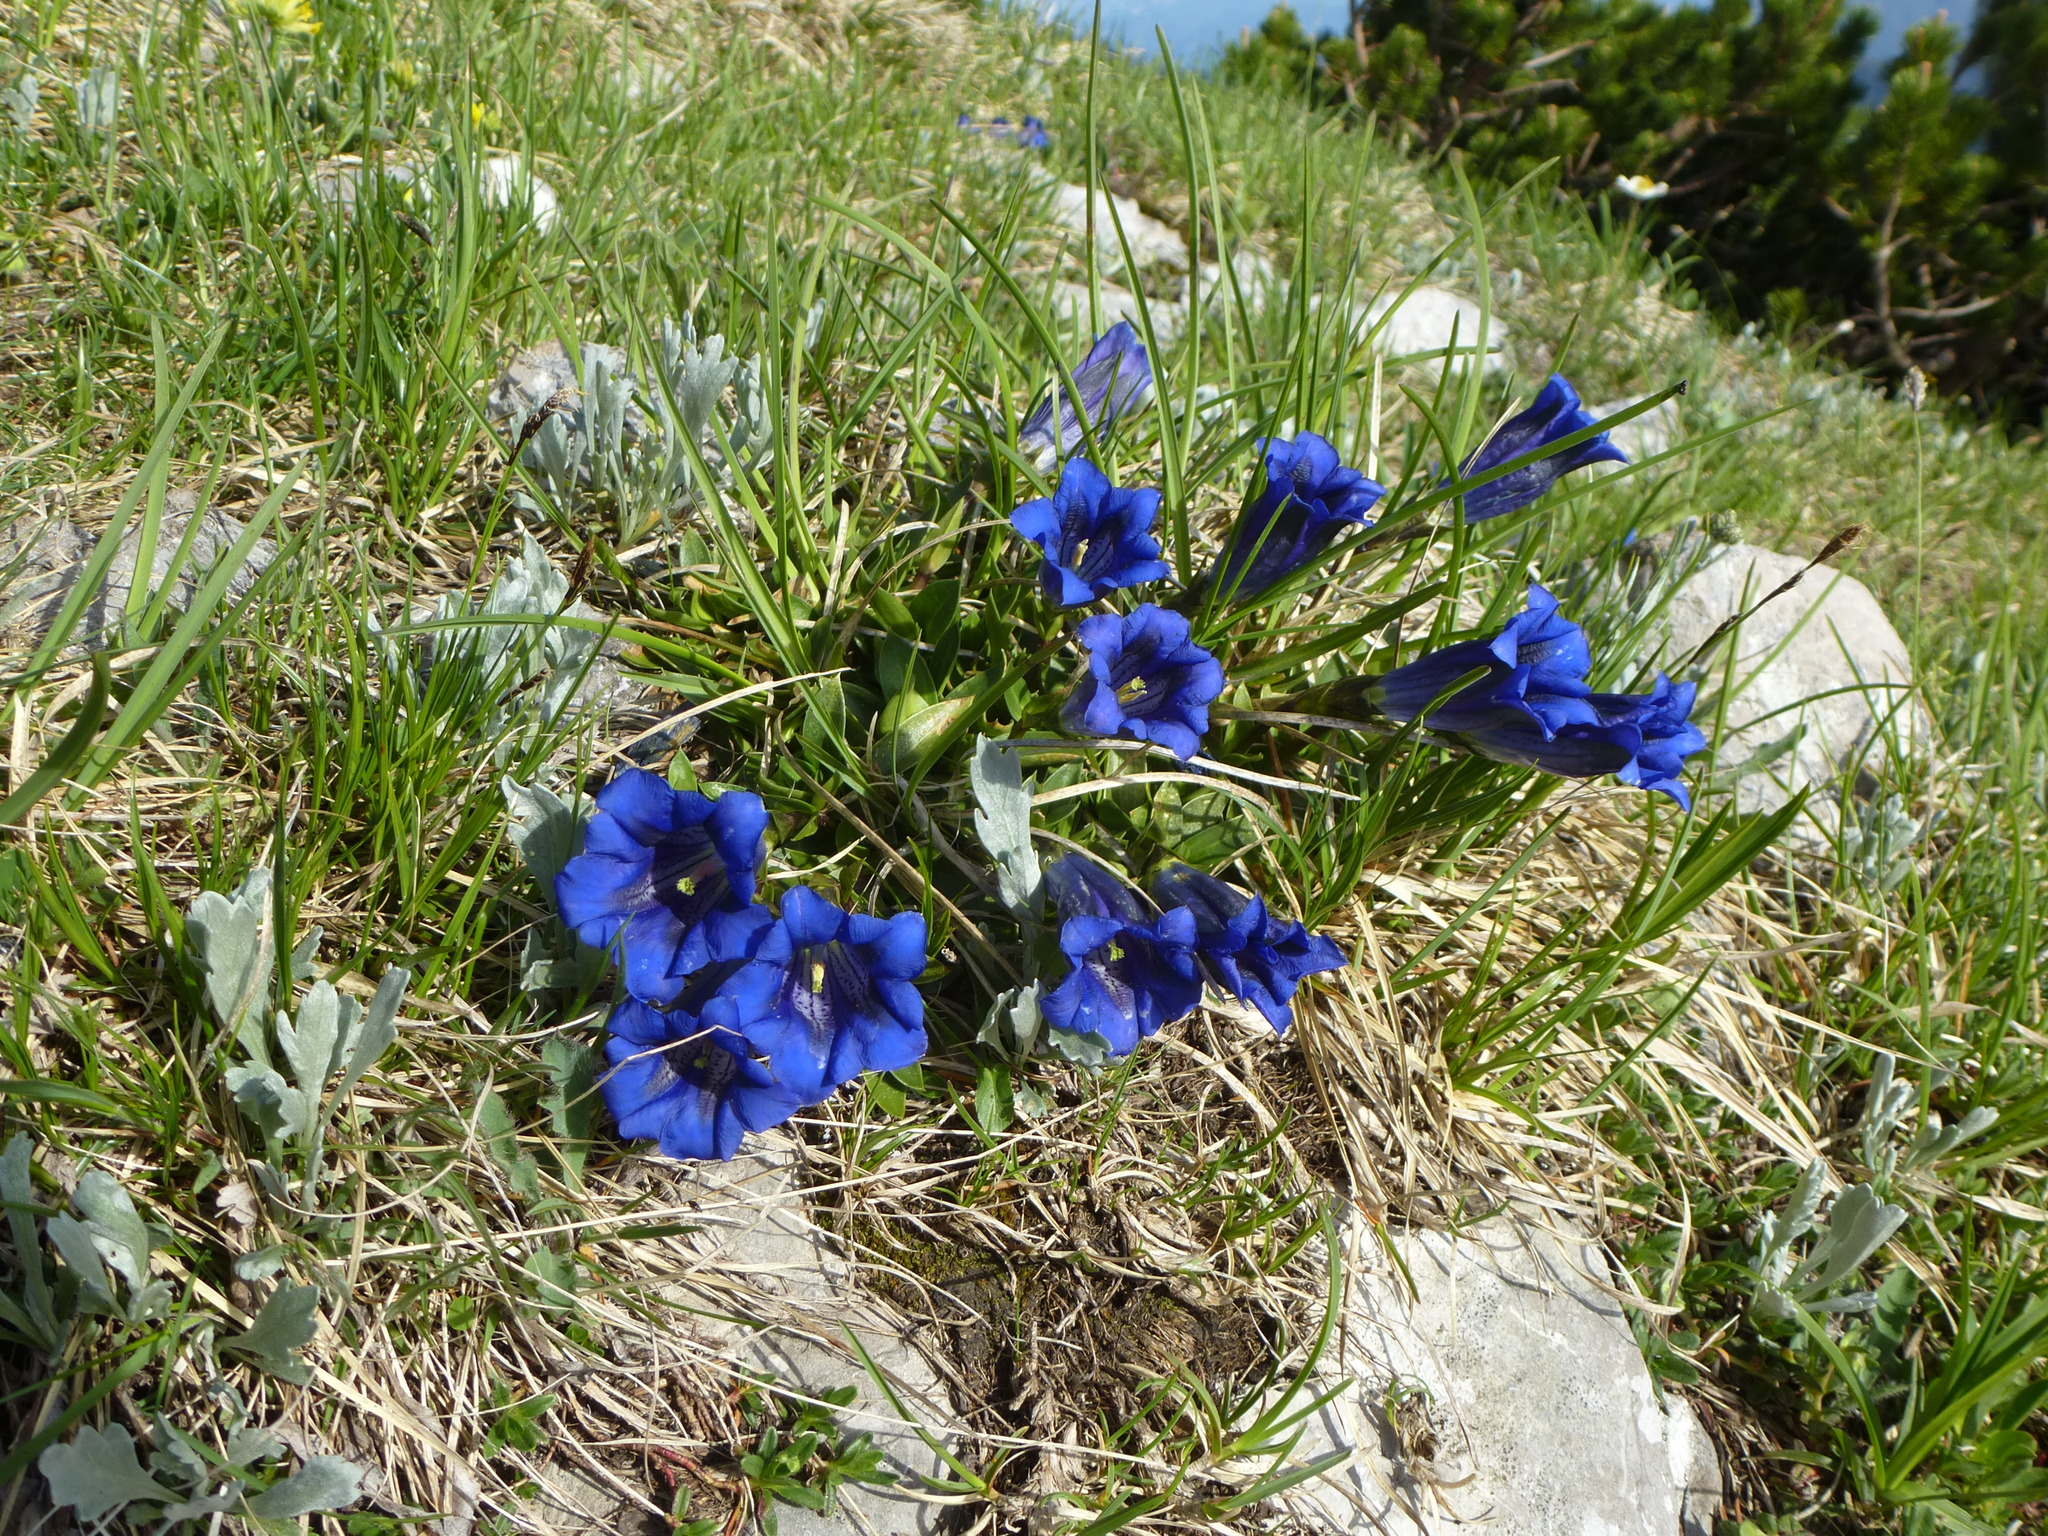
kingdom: Plantae
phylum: Tracheophyta
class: Magnoliopsida
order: Gentianales
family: Gentianaceae
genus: Gentiana
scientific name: Gentiana clusii
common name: Trumpet gentian
